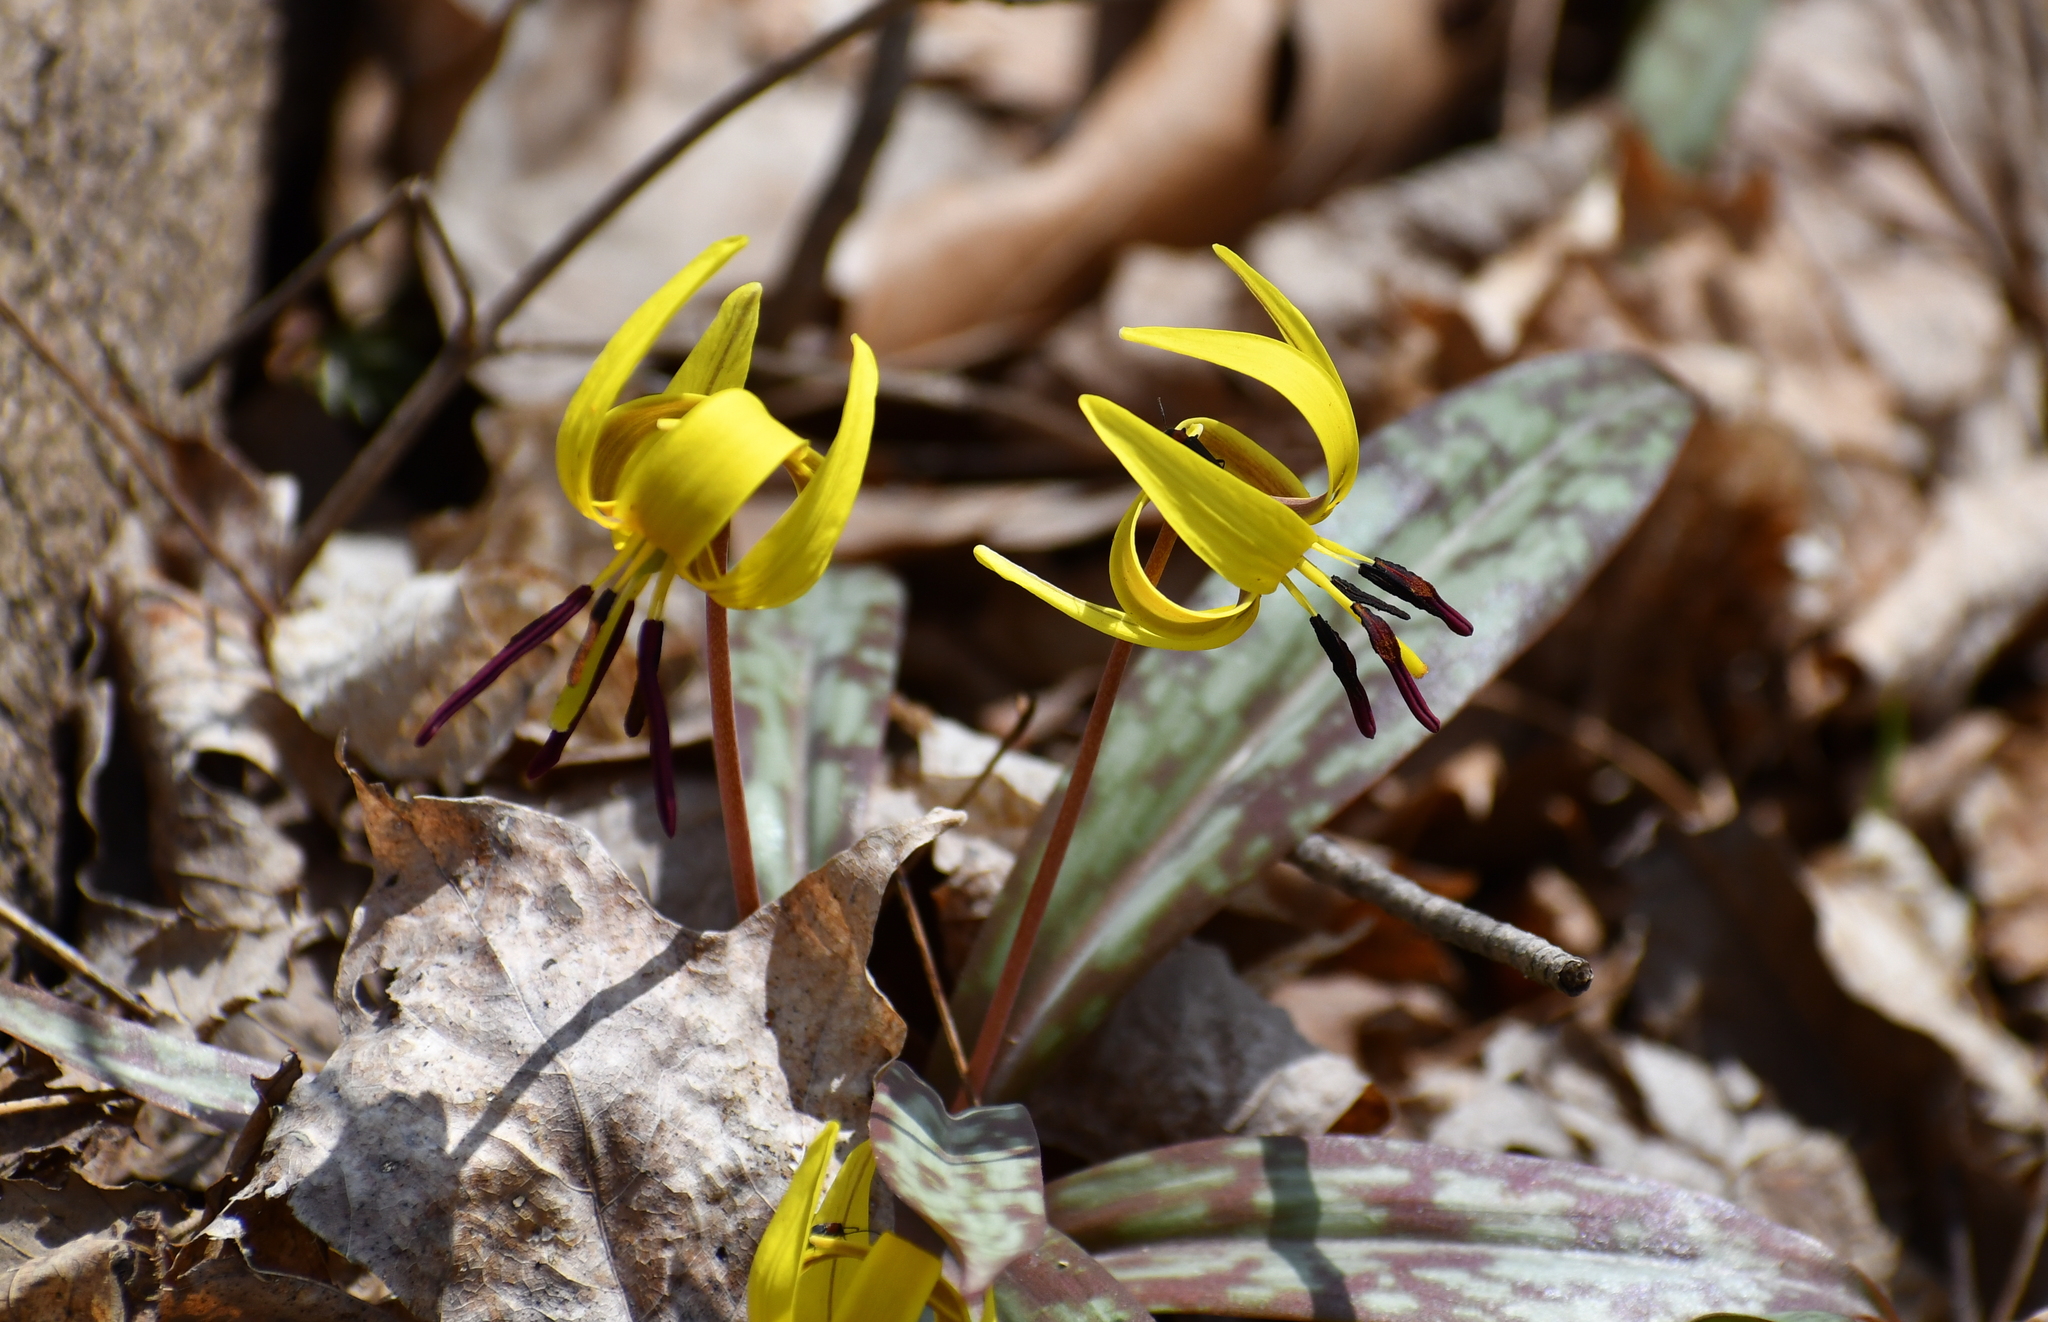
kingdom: Plantae
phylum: Tracheophyta
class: Liliopsida
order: Liliales
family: Liliaceae
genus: Erythronium
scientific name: Erythronium americanum
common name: Yellow adder's-tongue
